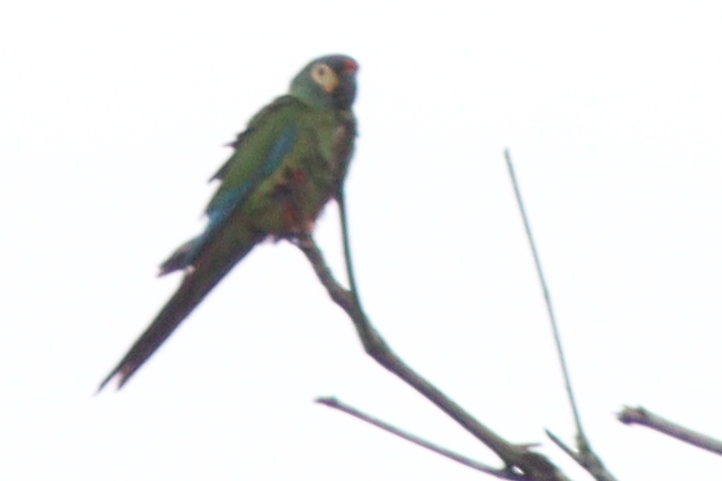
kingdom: Animalia
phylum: Chordata
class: Aves
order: Psittaciformes
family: Psittacidae
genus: Primolius
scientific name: Primolius maracana
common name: Blue-winged macaw
